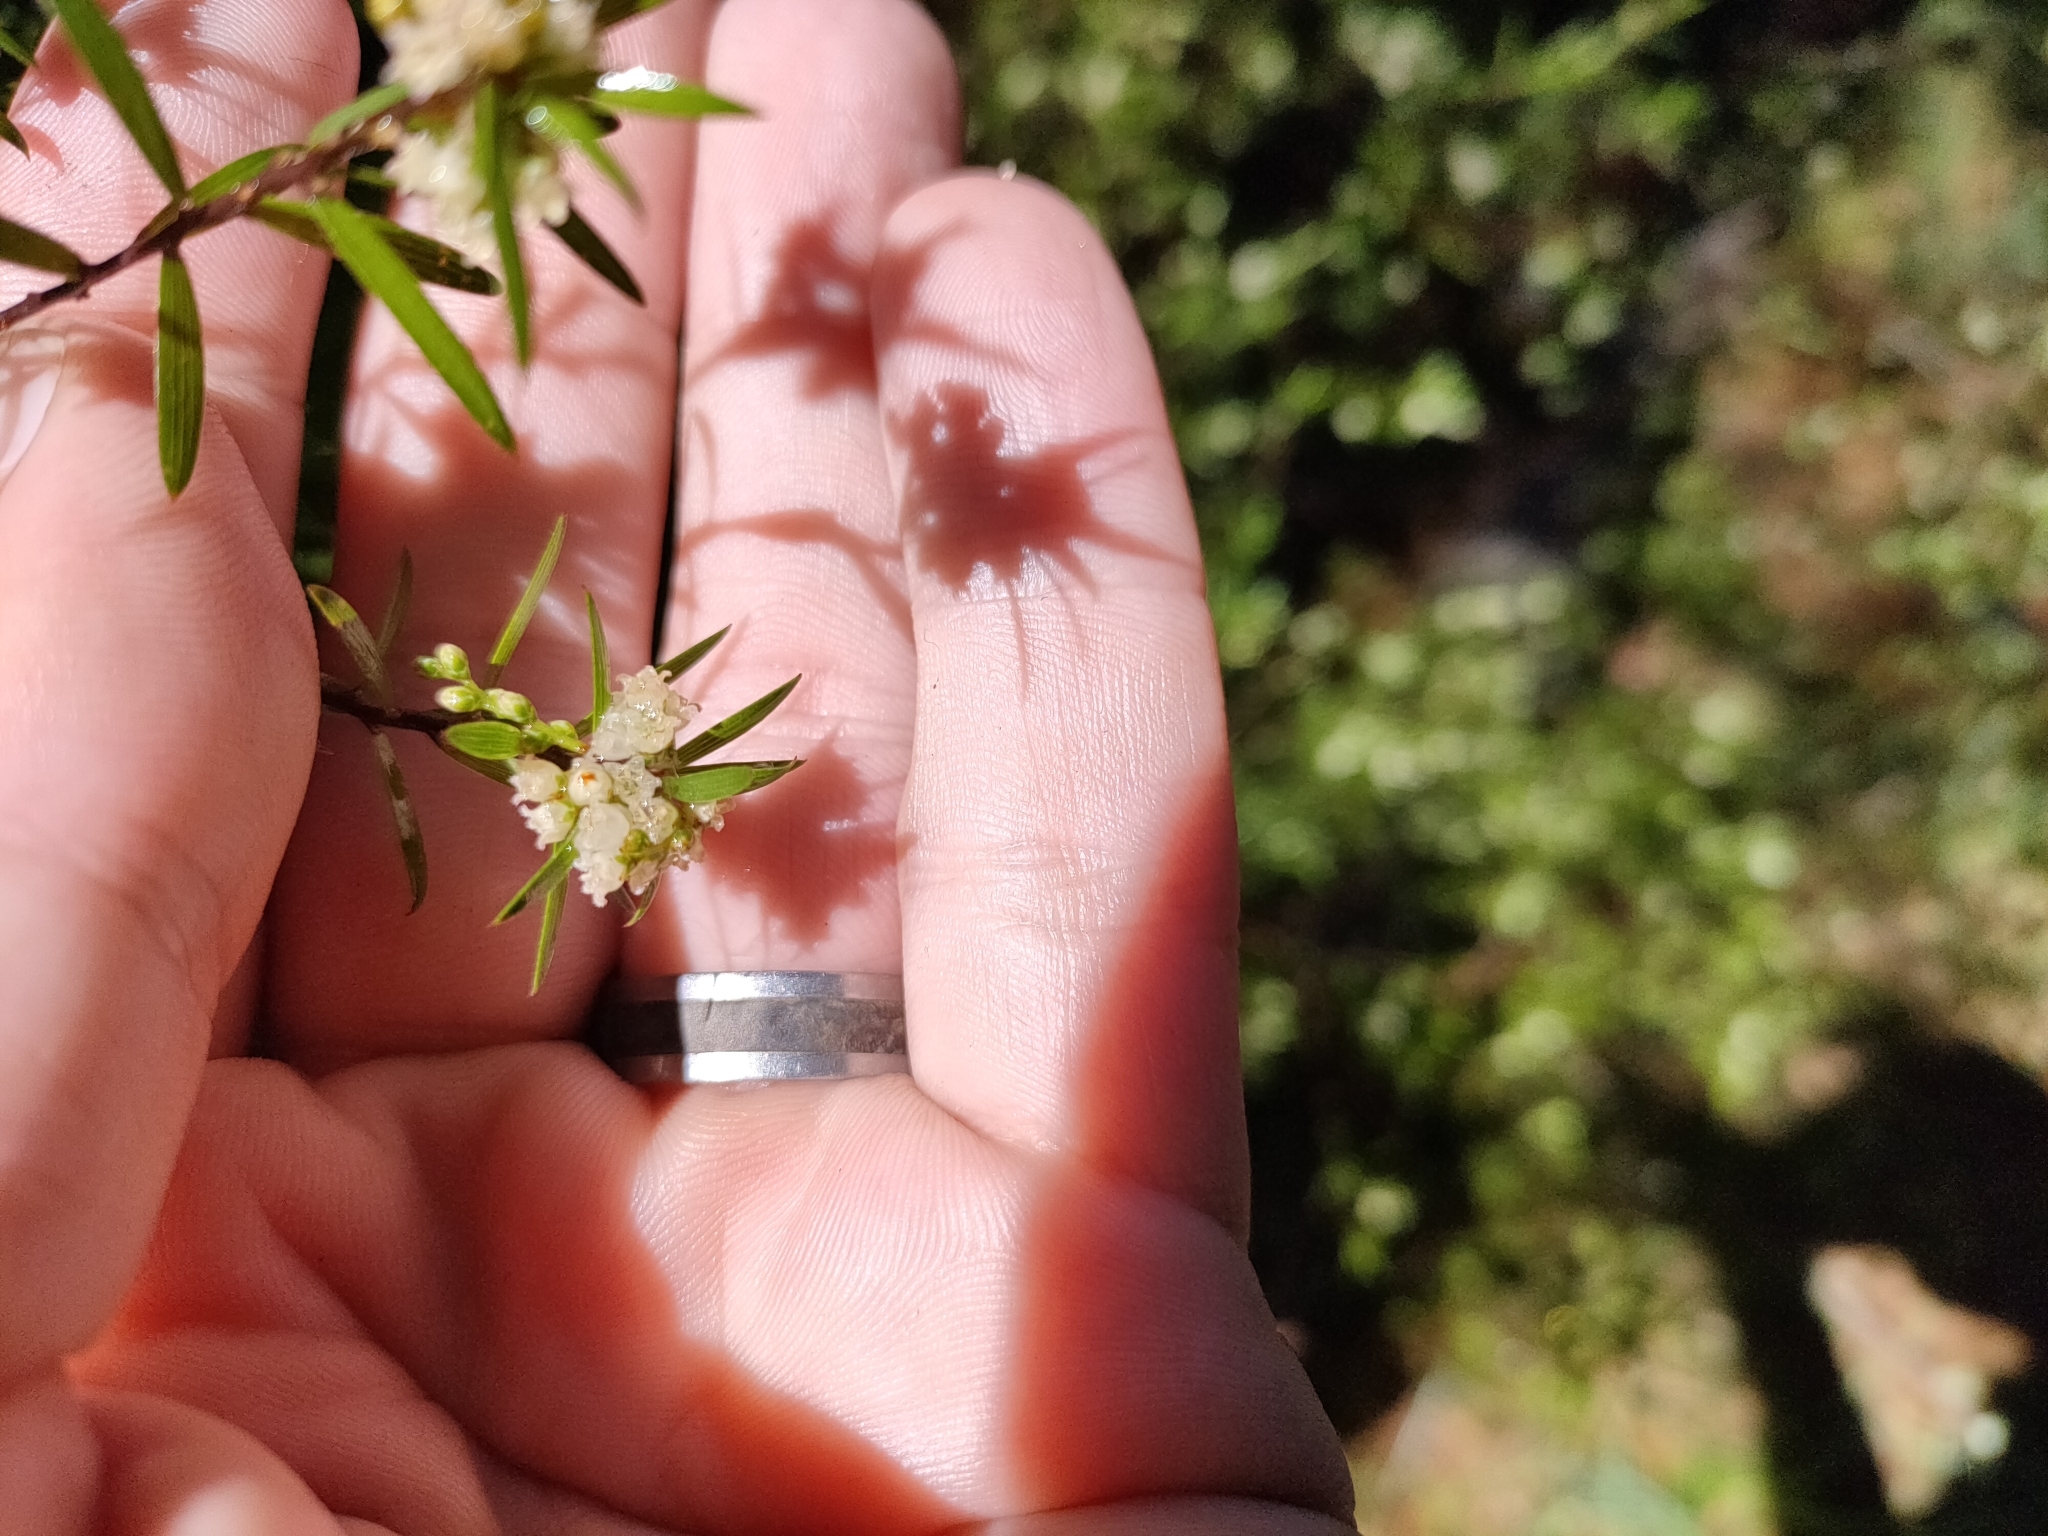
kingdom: Plantae
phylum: Tracheophyta
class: Magnoliopsida
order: Ericales
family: Ericaceae
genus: Leucopogon
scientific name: Leucopogon fasciculatus
